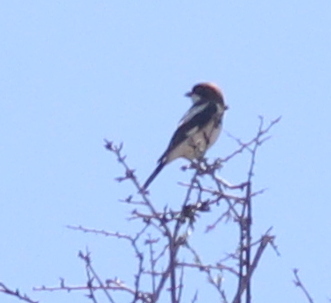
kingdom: Animalia
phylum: Chordata
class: Aves
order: Passeriformes
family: Laniidae
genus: Lanius
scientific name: Lanius senator
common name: Woodchat shrike
